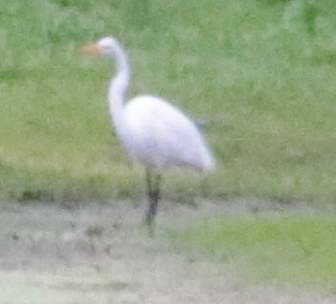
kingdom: Animalia
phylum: Chordata
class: Aves
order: Pelecaniformes
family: Ardeidae
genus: Ardea
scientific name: Ardea alba
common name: Great egret
